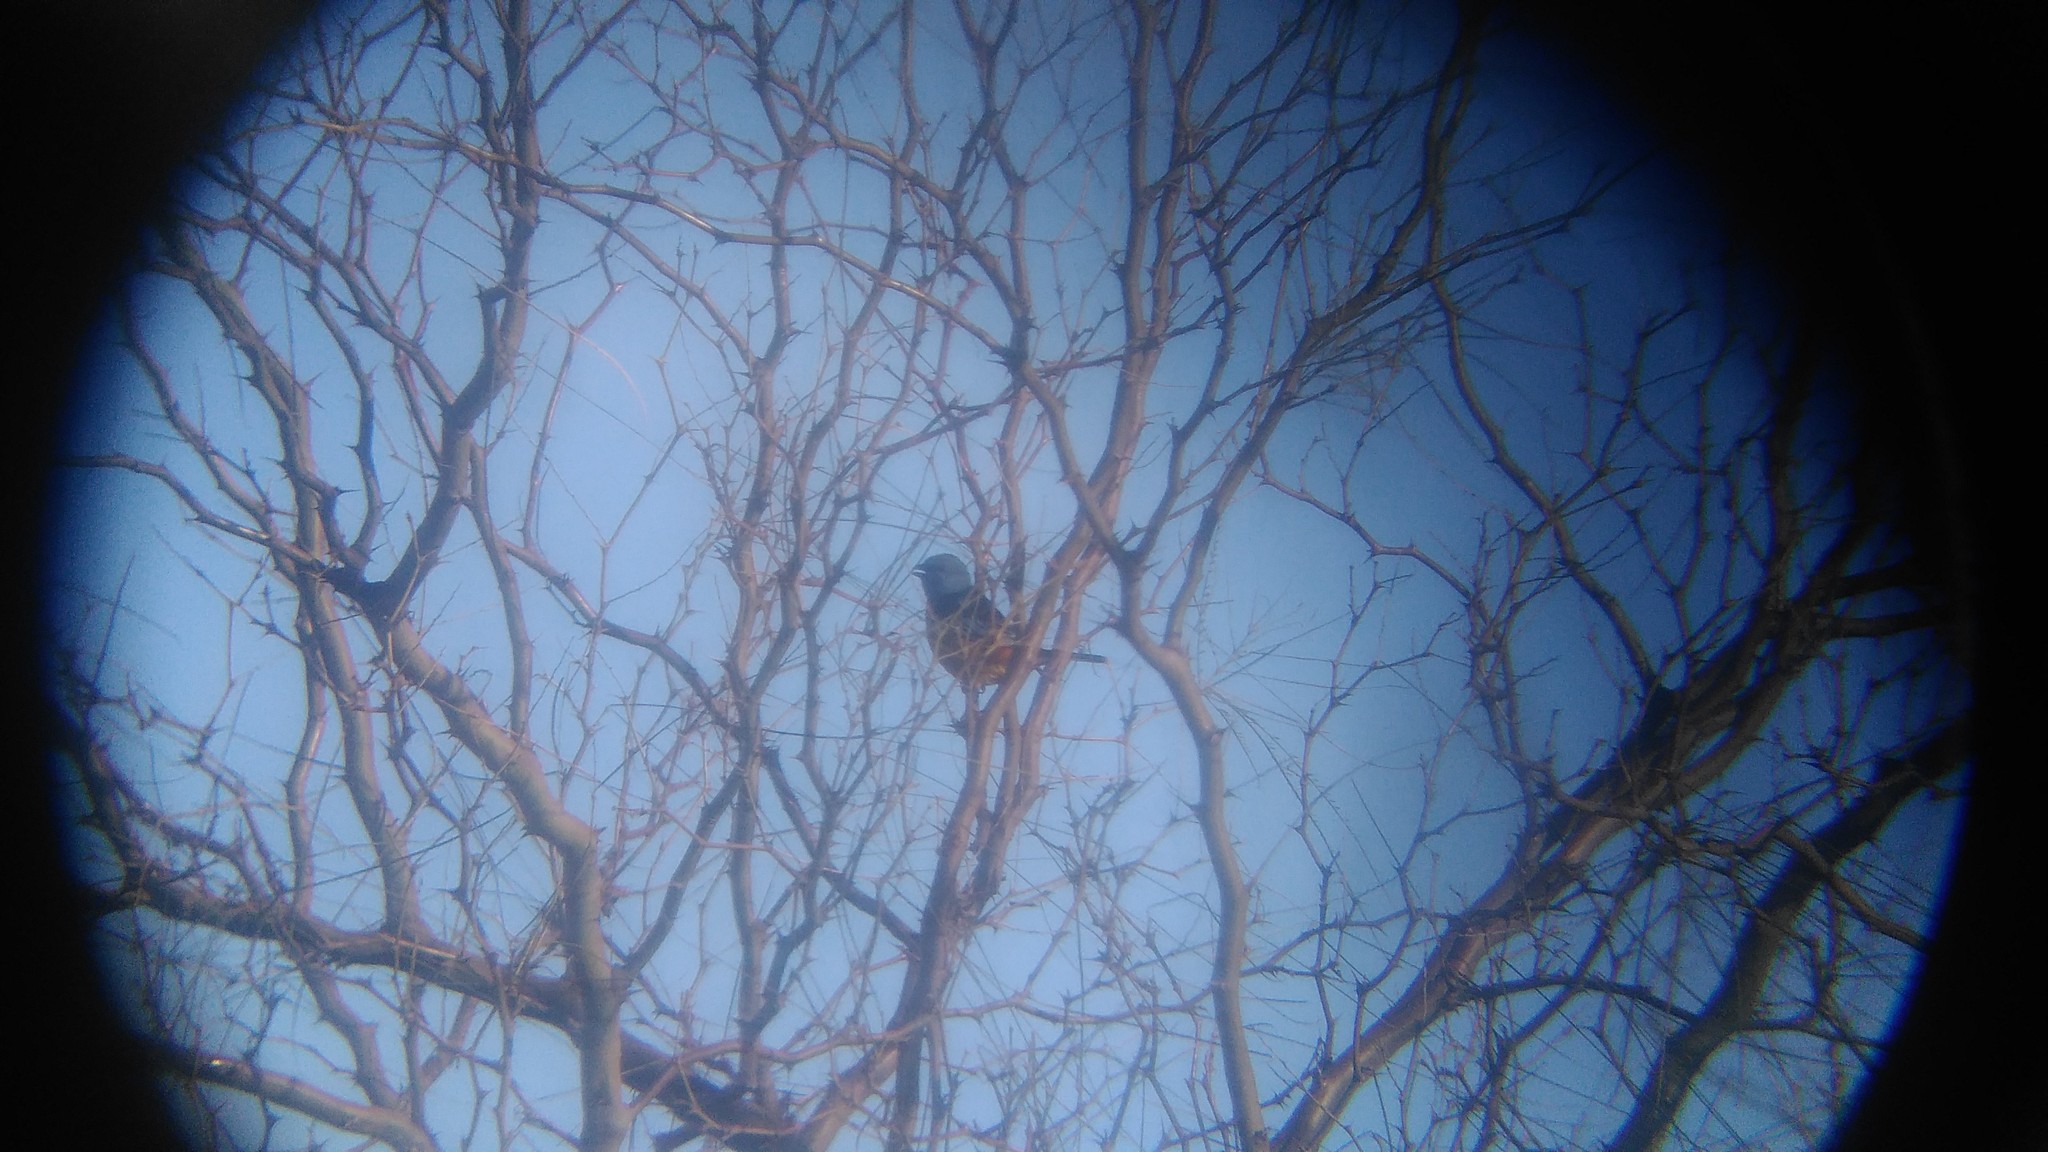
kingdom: Animalia
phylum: Chordata
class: Aves
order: Passeriformes
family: Thraupidae
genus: Rauenia
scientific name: Rauenia bonariensis
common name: Blue-and-yellow tanager
